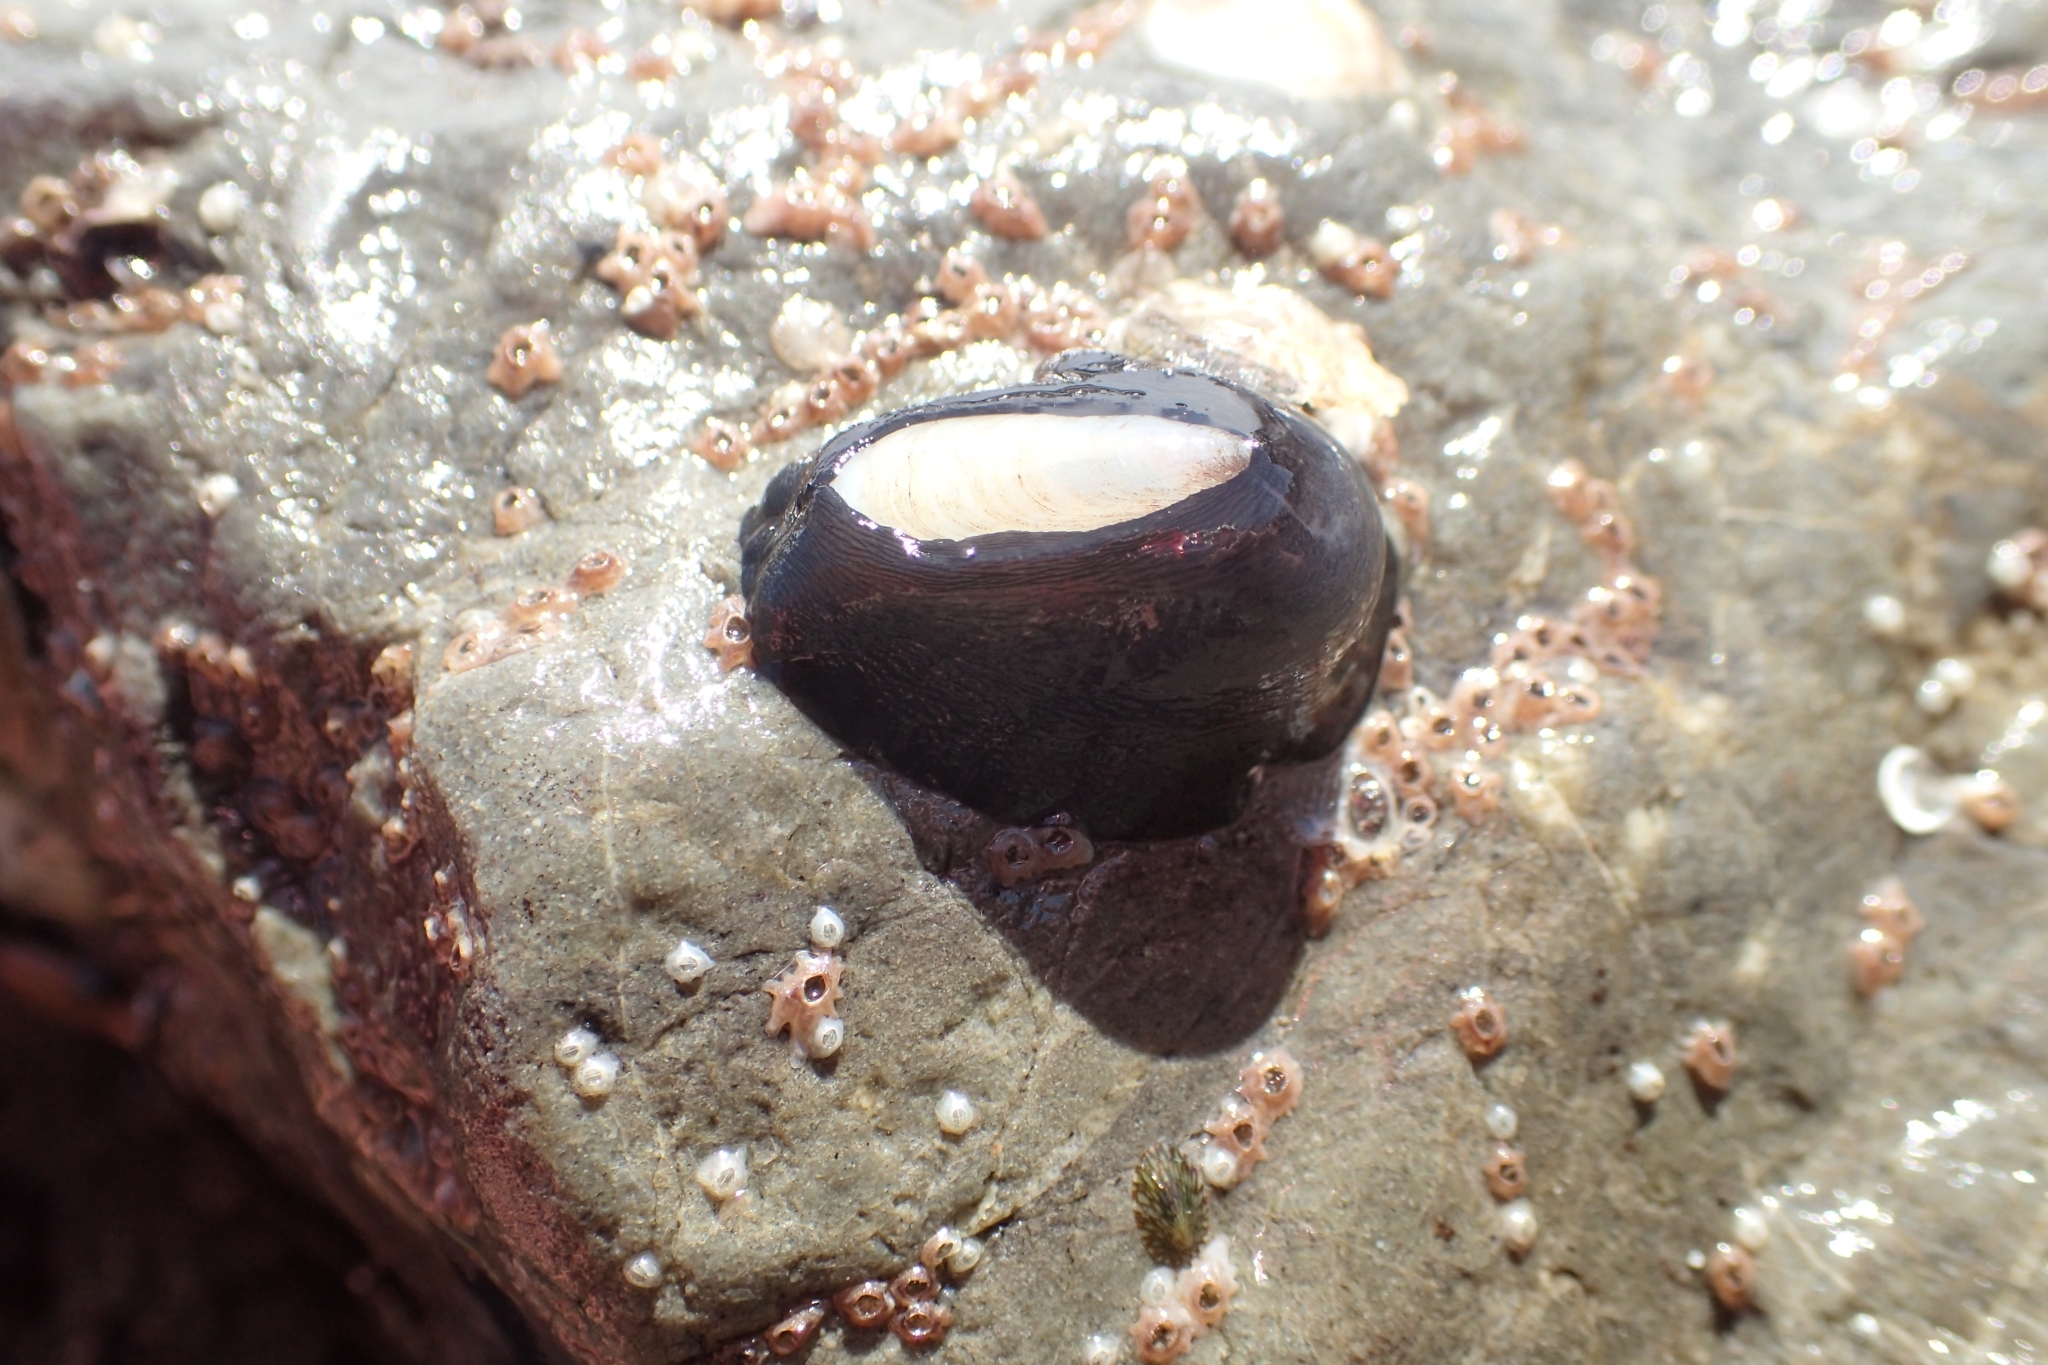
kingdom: Animalia
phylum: Mollusca
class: Gastropoda
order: Lepetellida
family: Fissurellidae
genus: Scutus
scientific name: Scutus breviculus
